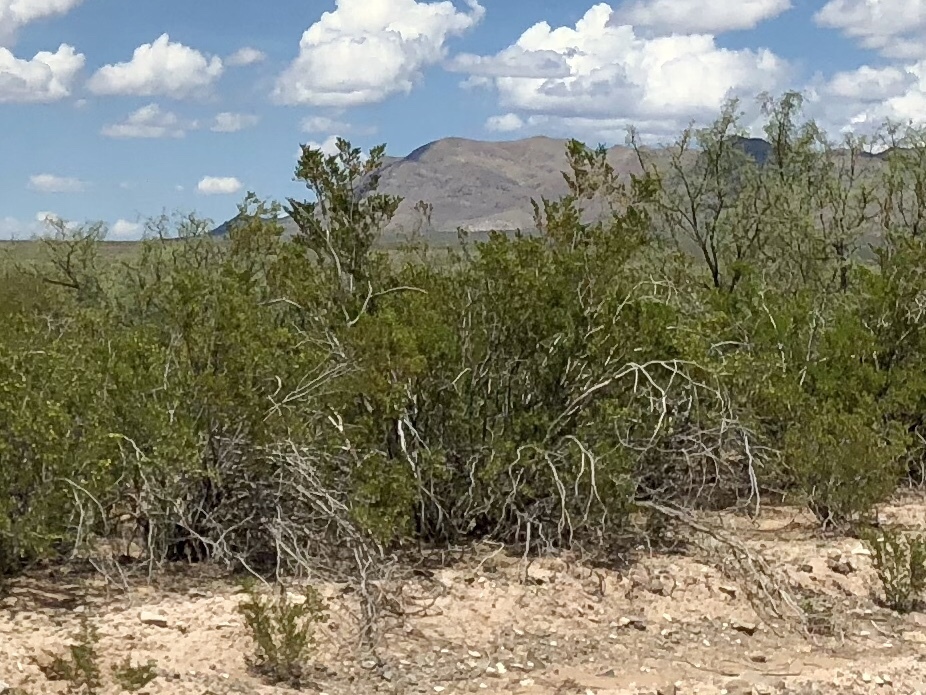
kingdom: Plantae
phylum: Tracheophyta
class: Magnoliopsida
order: Zygophyllales
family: Zygophyllaceae
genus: Larrea
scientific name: Larrea tridentata
